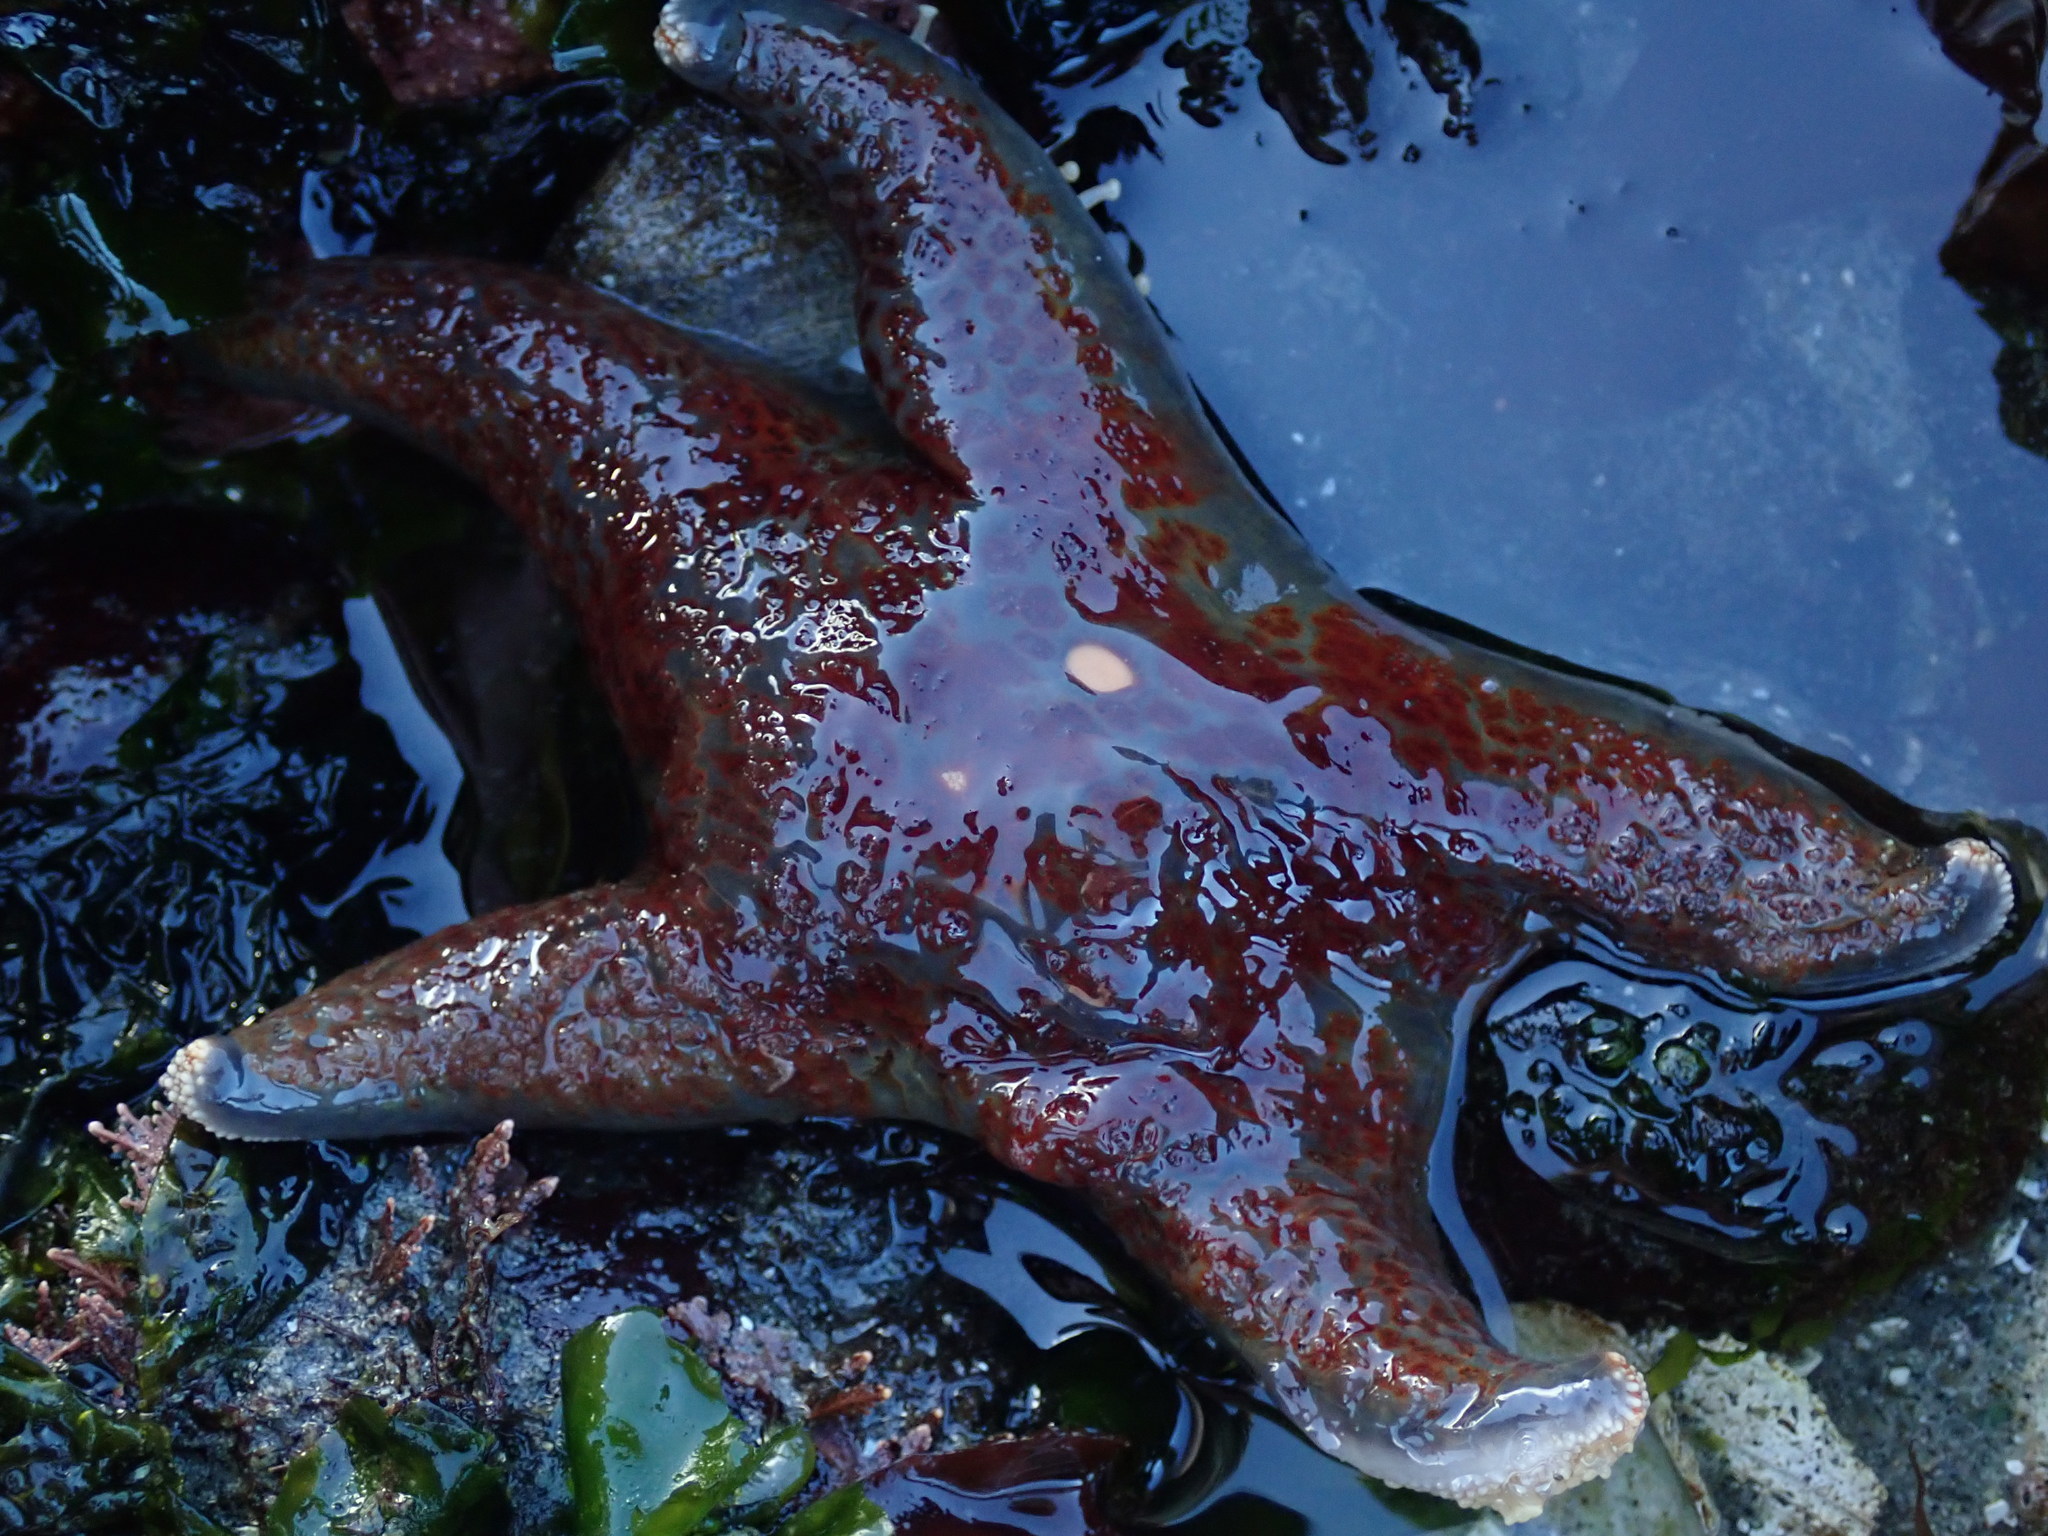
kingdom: Animalia
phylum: Echinodermata
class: Asteroidea
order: Valvatida
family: Asteropseidae
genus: Dermasterias
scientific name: Dermasterias imbricata
